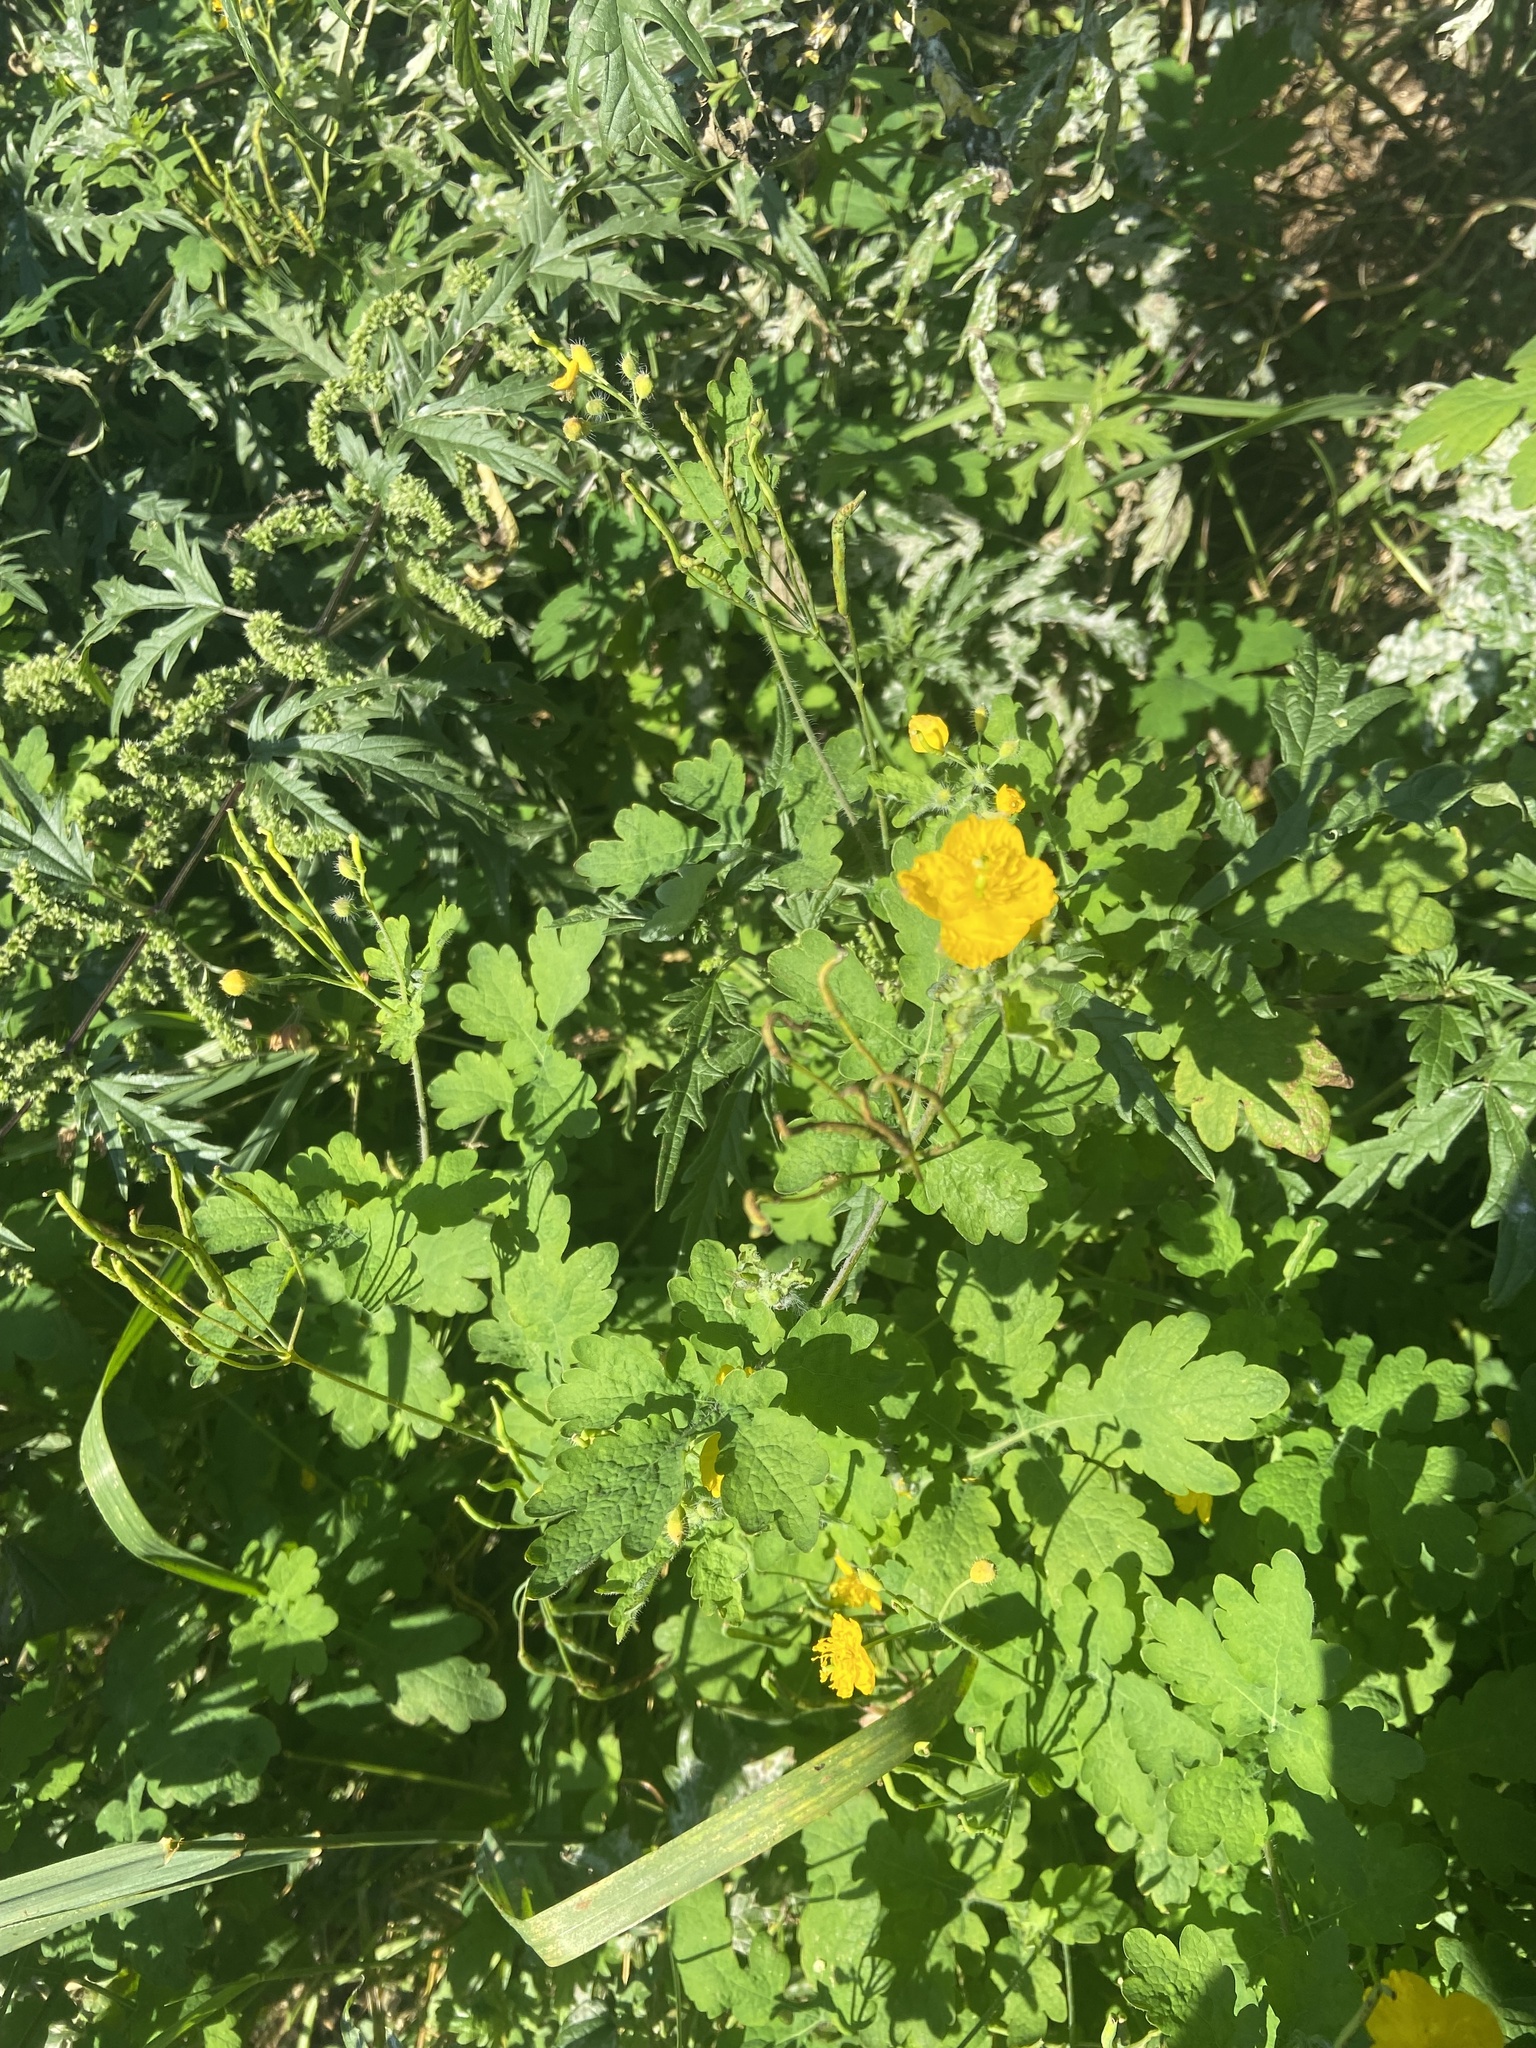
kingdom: Plantae
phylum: Tracheophyta
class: Magnoliopsida
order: Ranunculales
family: Papaveraceae
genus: Chelidonium
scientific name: Chelidonium majus
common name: Greater celandine
